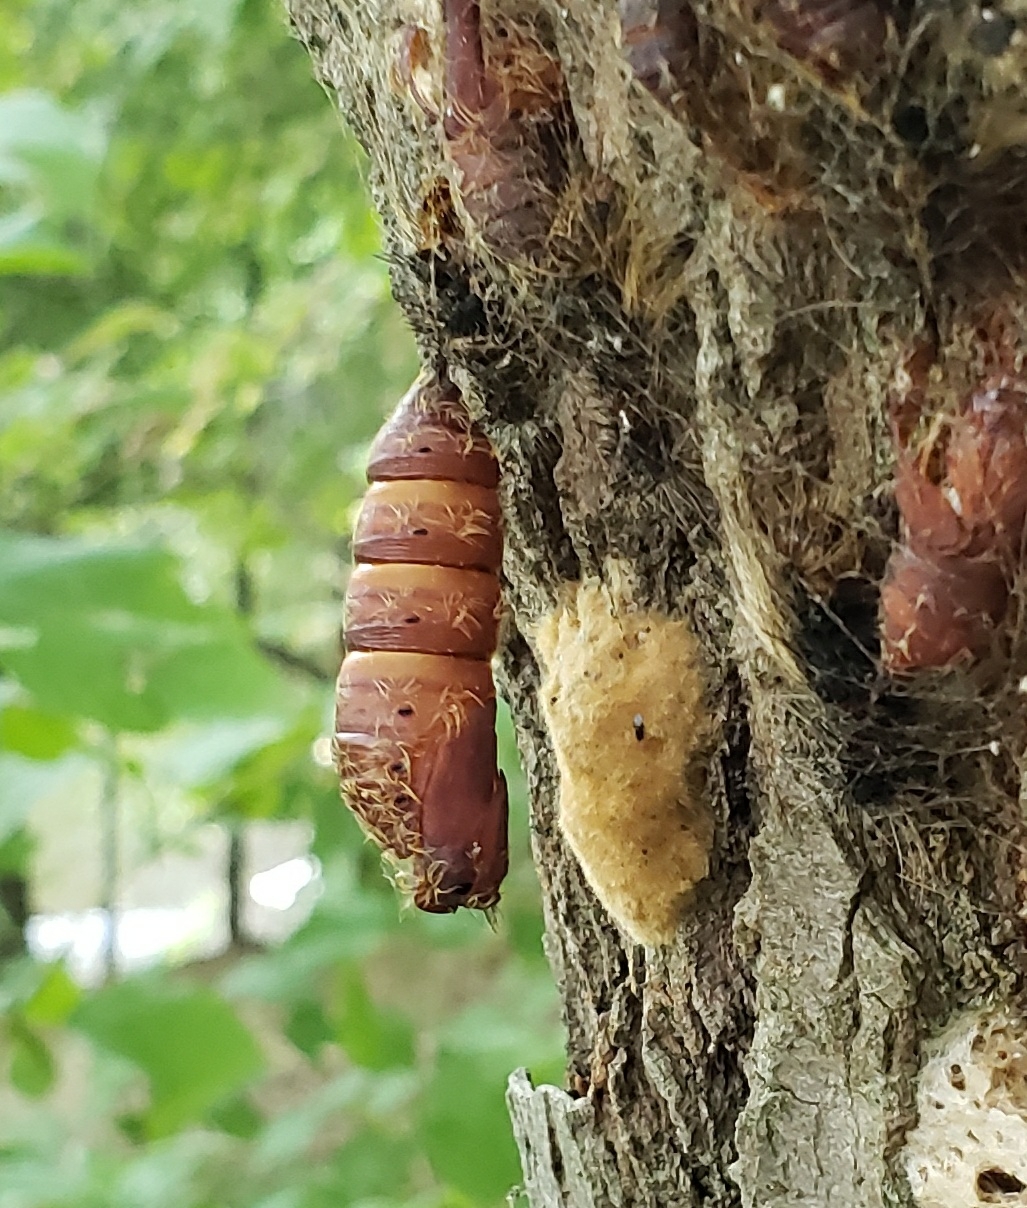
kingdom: Animalia
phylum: Arthropoda
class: Insecta
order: Lepidoptera
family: Erebidae
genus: Lymantria
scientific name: Lymantria dispar
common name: Gypsy moth
